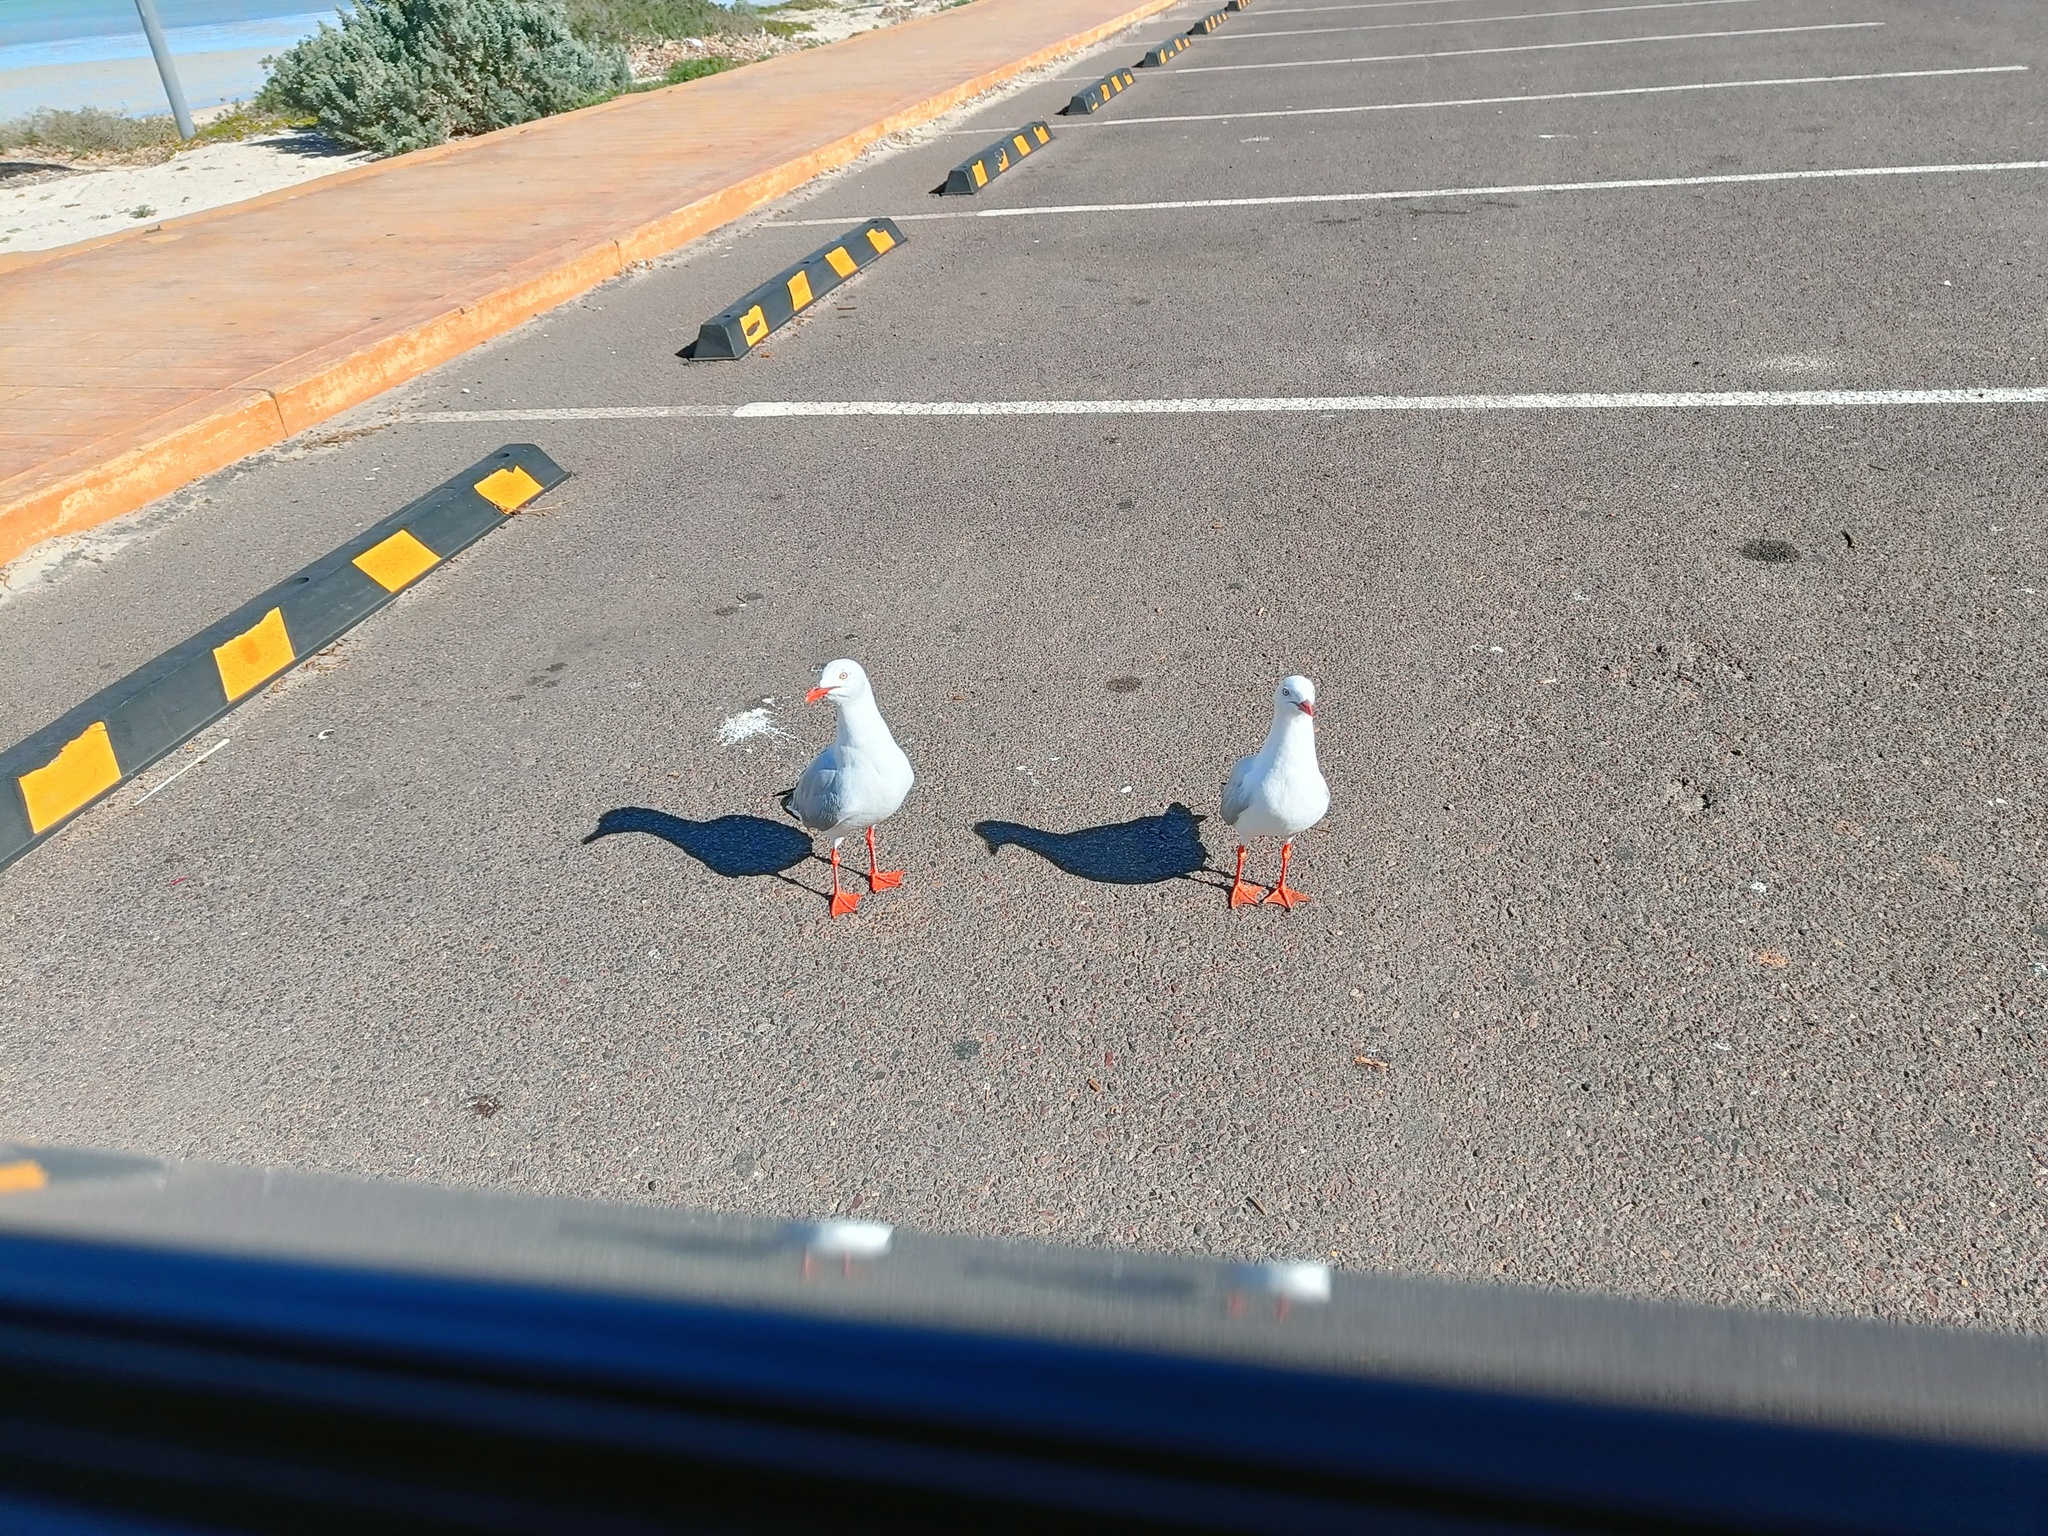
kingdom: Animalia
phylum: Chordata
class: Aves
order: Charadriiformes
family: Laridae
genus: Chroicocephalus
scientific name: Chroicocephalus novaehollandiae
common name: Silver gull
